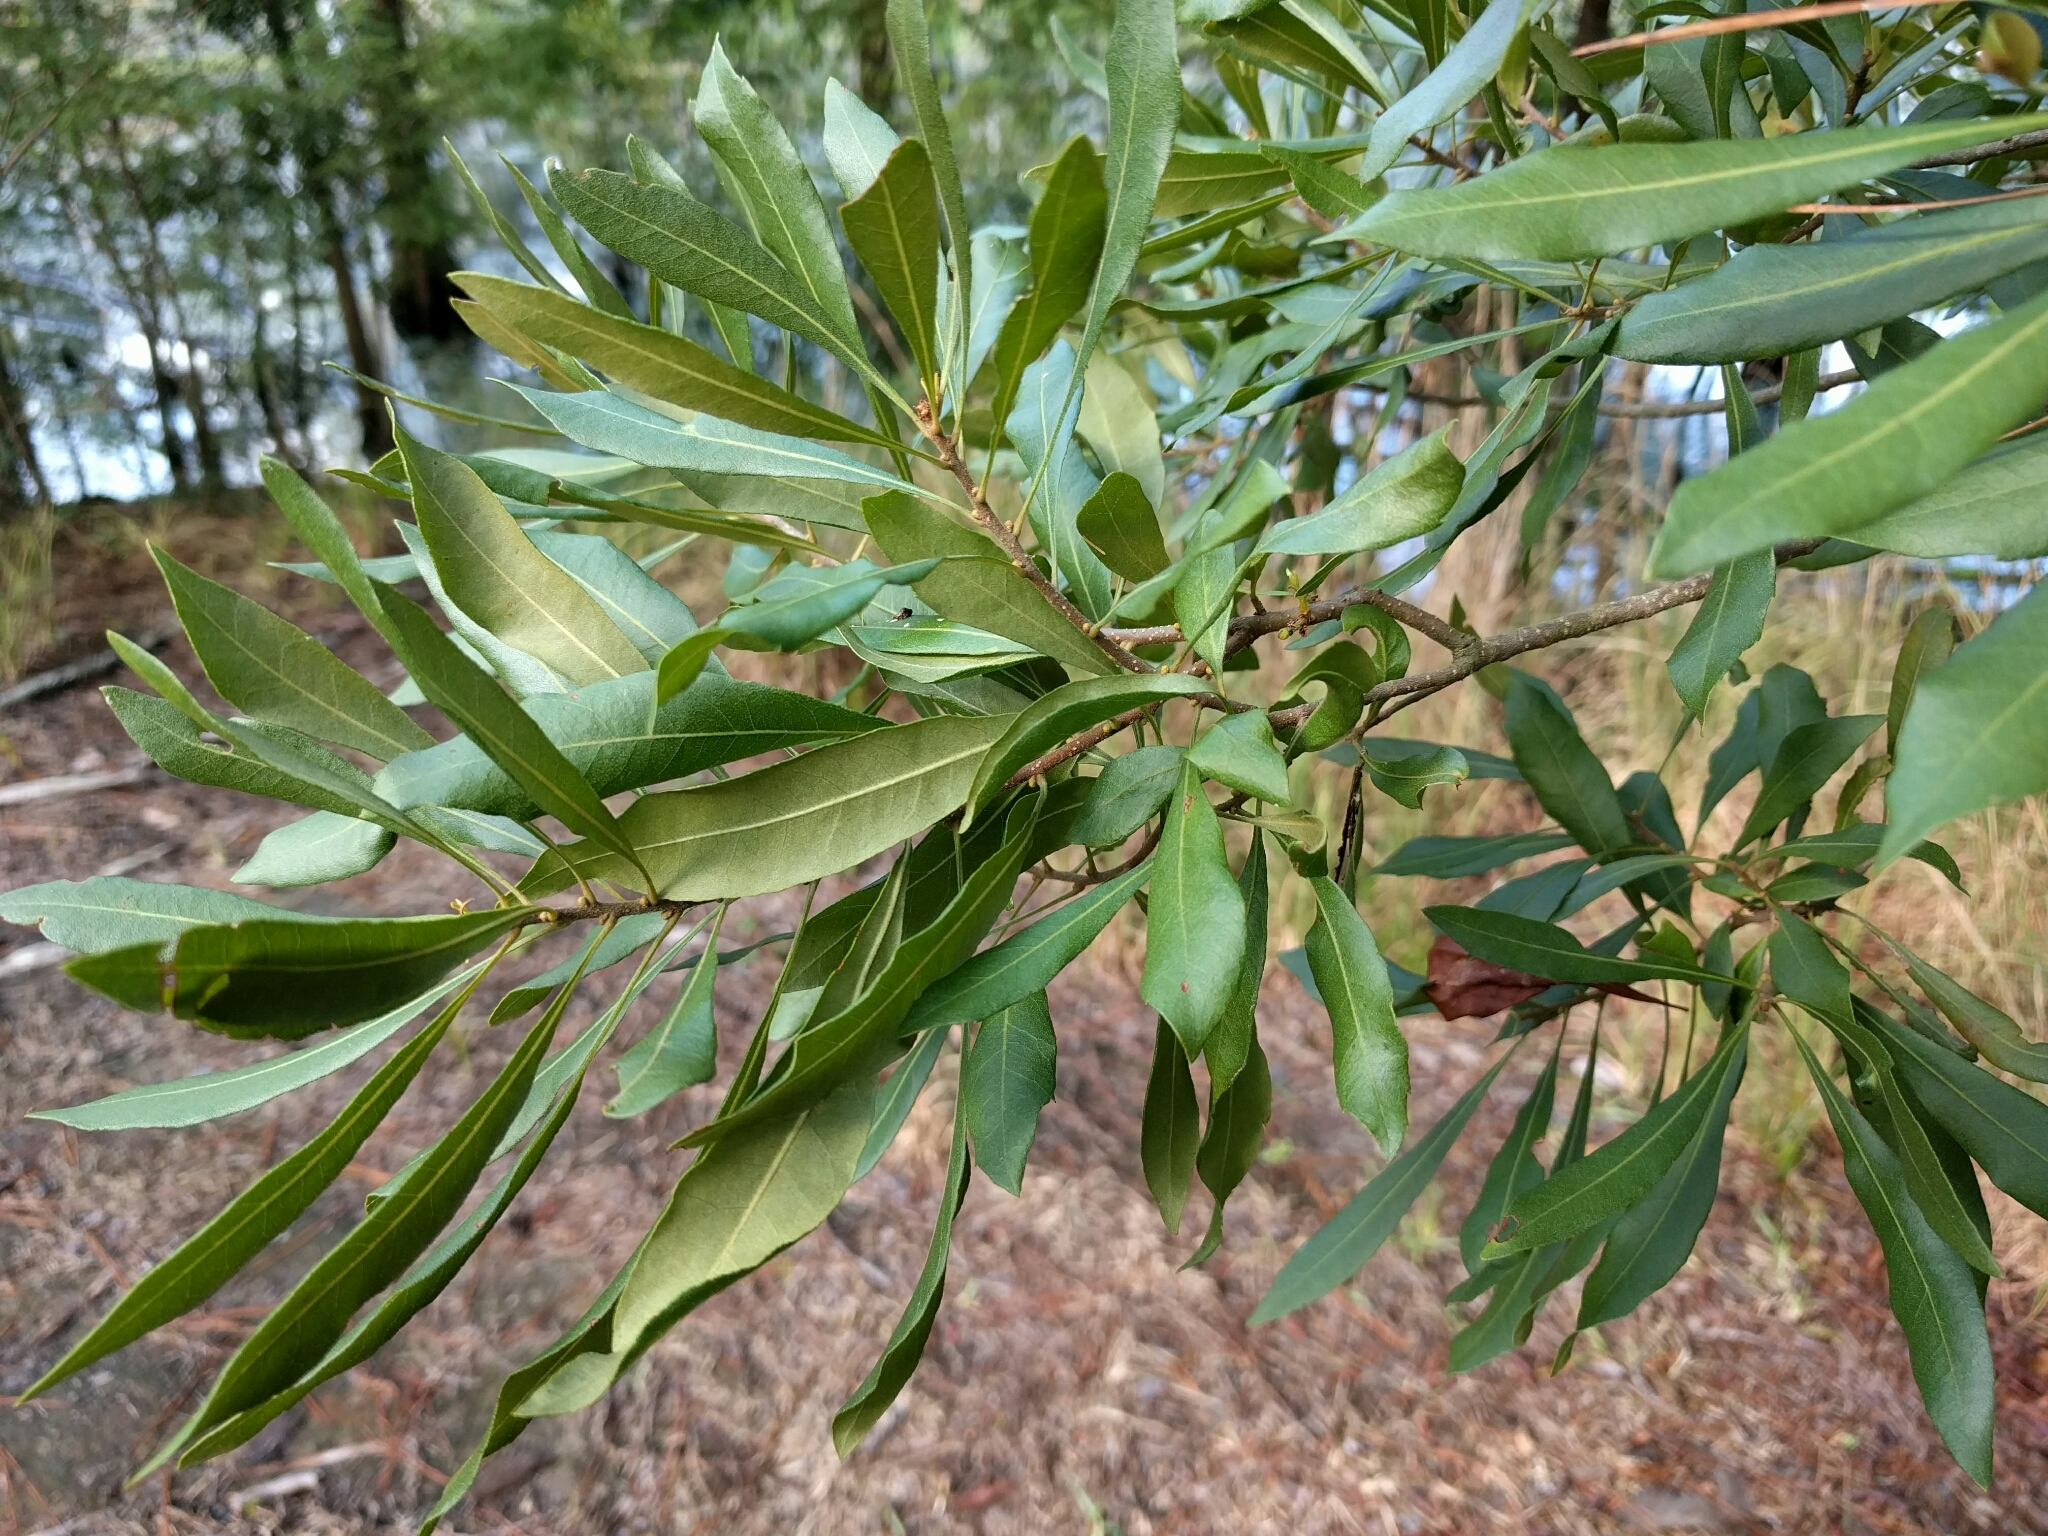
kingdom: Plantae
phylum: Tracheophyta
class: Magnoliopsida
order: Fagales
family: Myricaceae
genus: Morella
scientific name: Morella cerifera
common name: Wax myrtle
